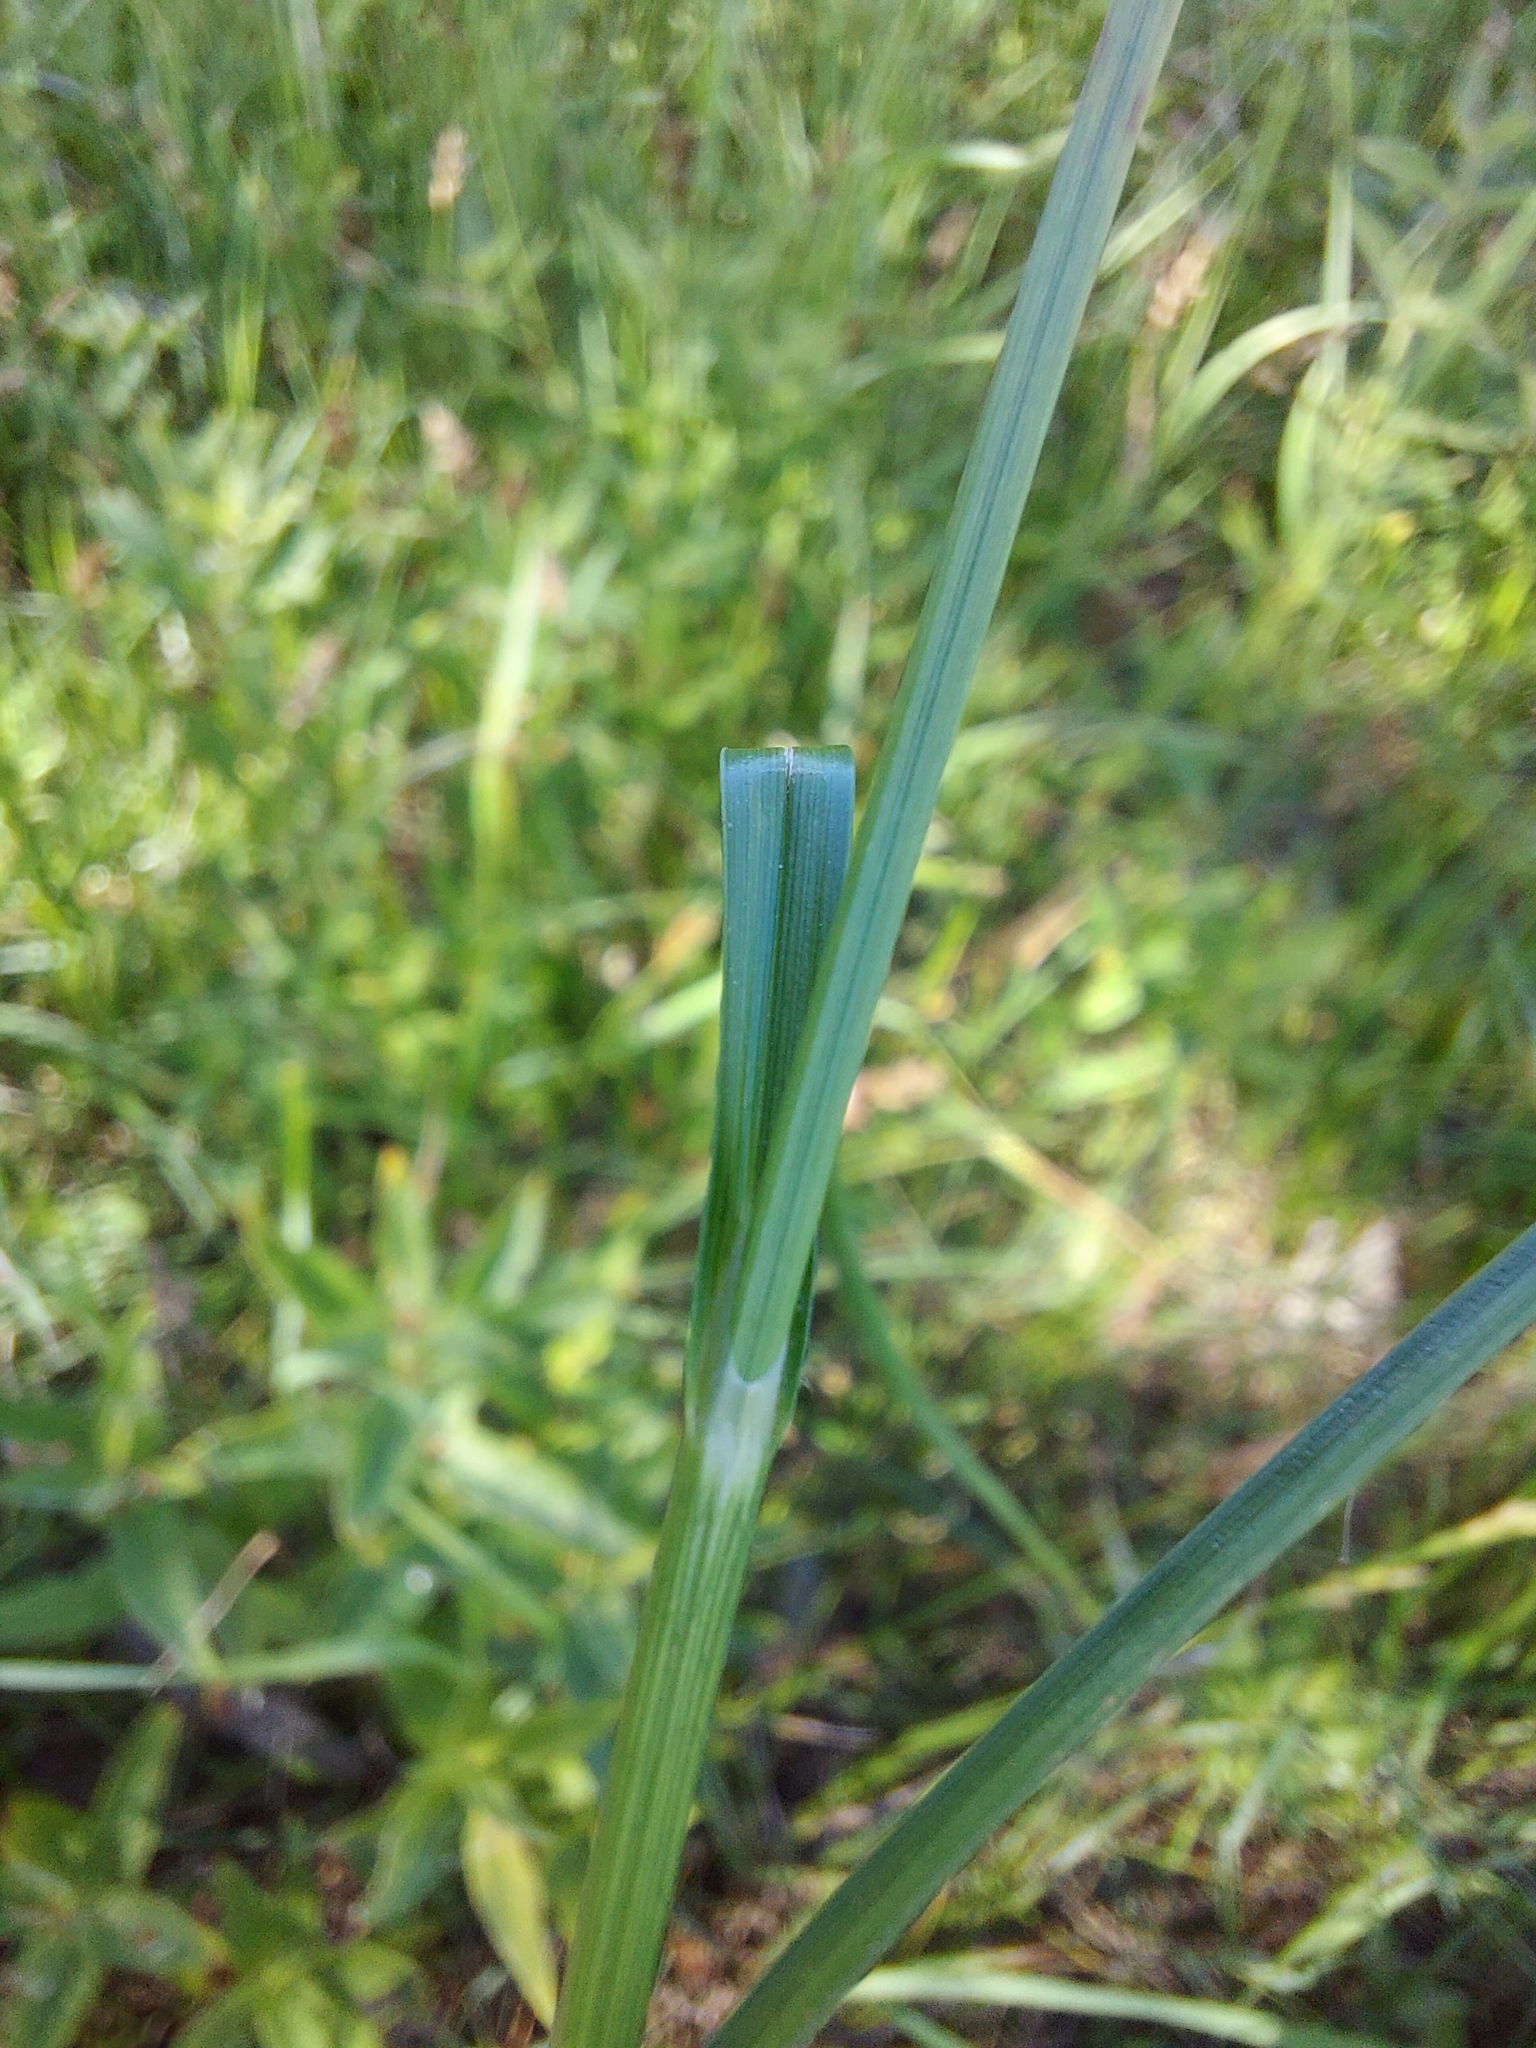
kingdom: Plantae
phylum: Tracheophyta
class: Liliopsida
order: Poales
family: Cyperaceae
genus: Carex
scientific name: Carex disticha
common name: Brown sedge
